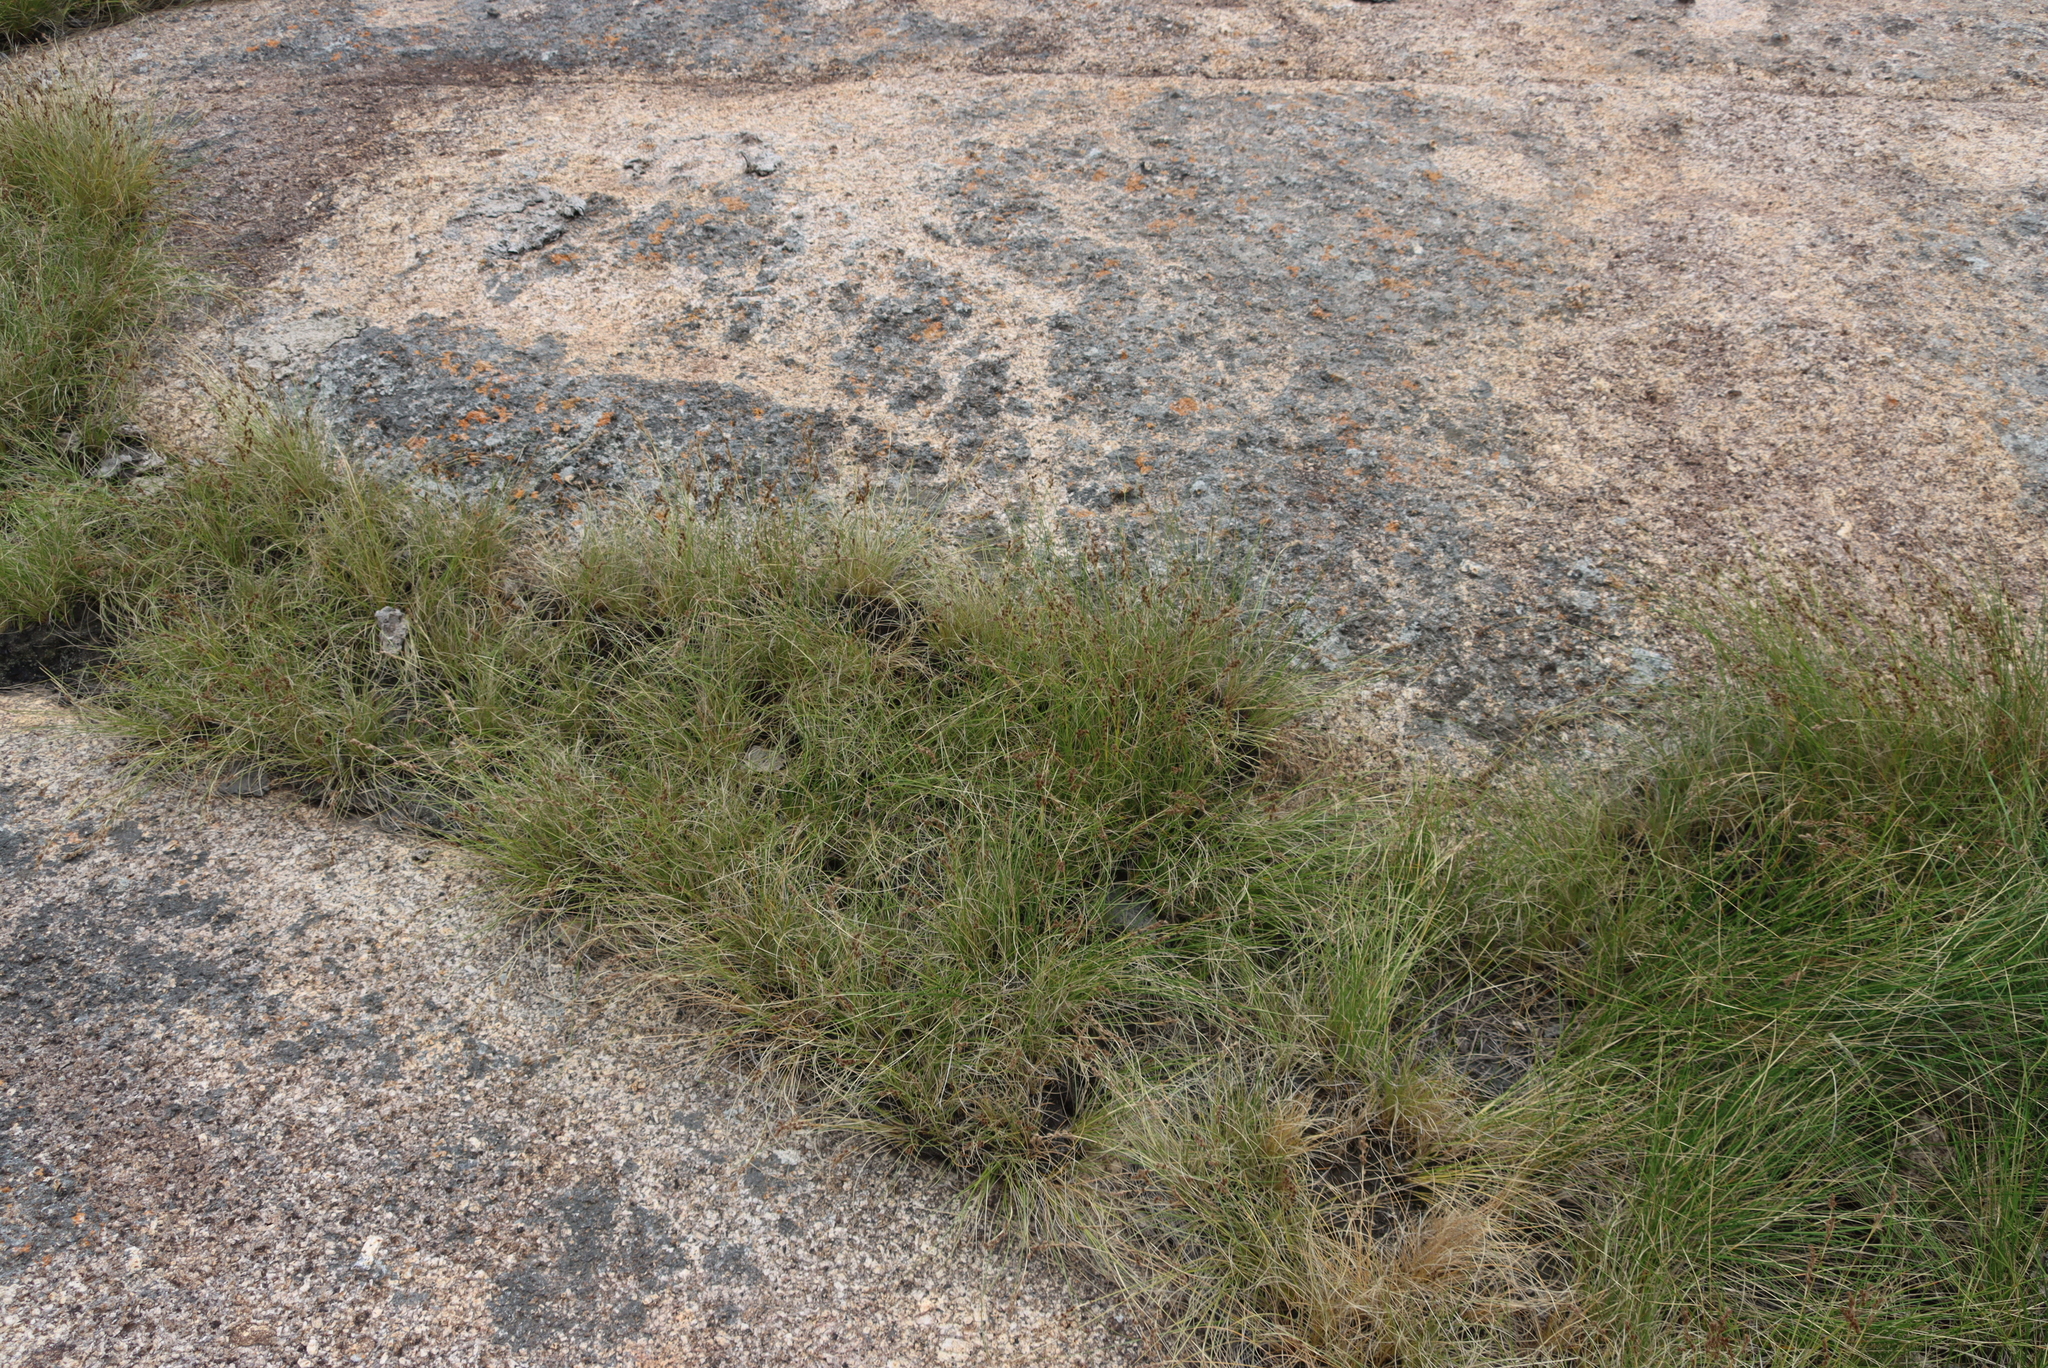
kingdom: Plantae
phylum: Tracheophyta
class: Liliopsida
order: Poales
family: Cyperaceae
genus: Coleochloa
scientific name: Coleochloa setifera
